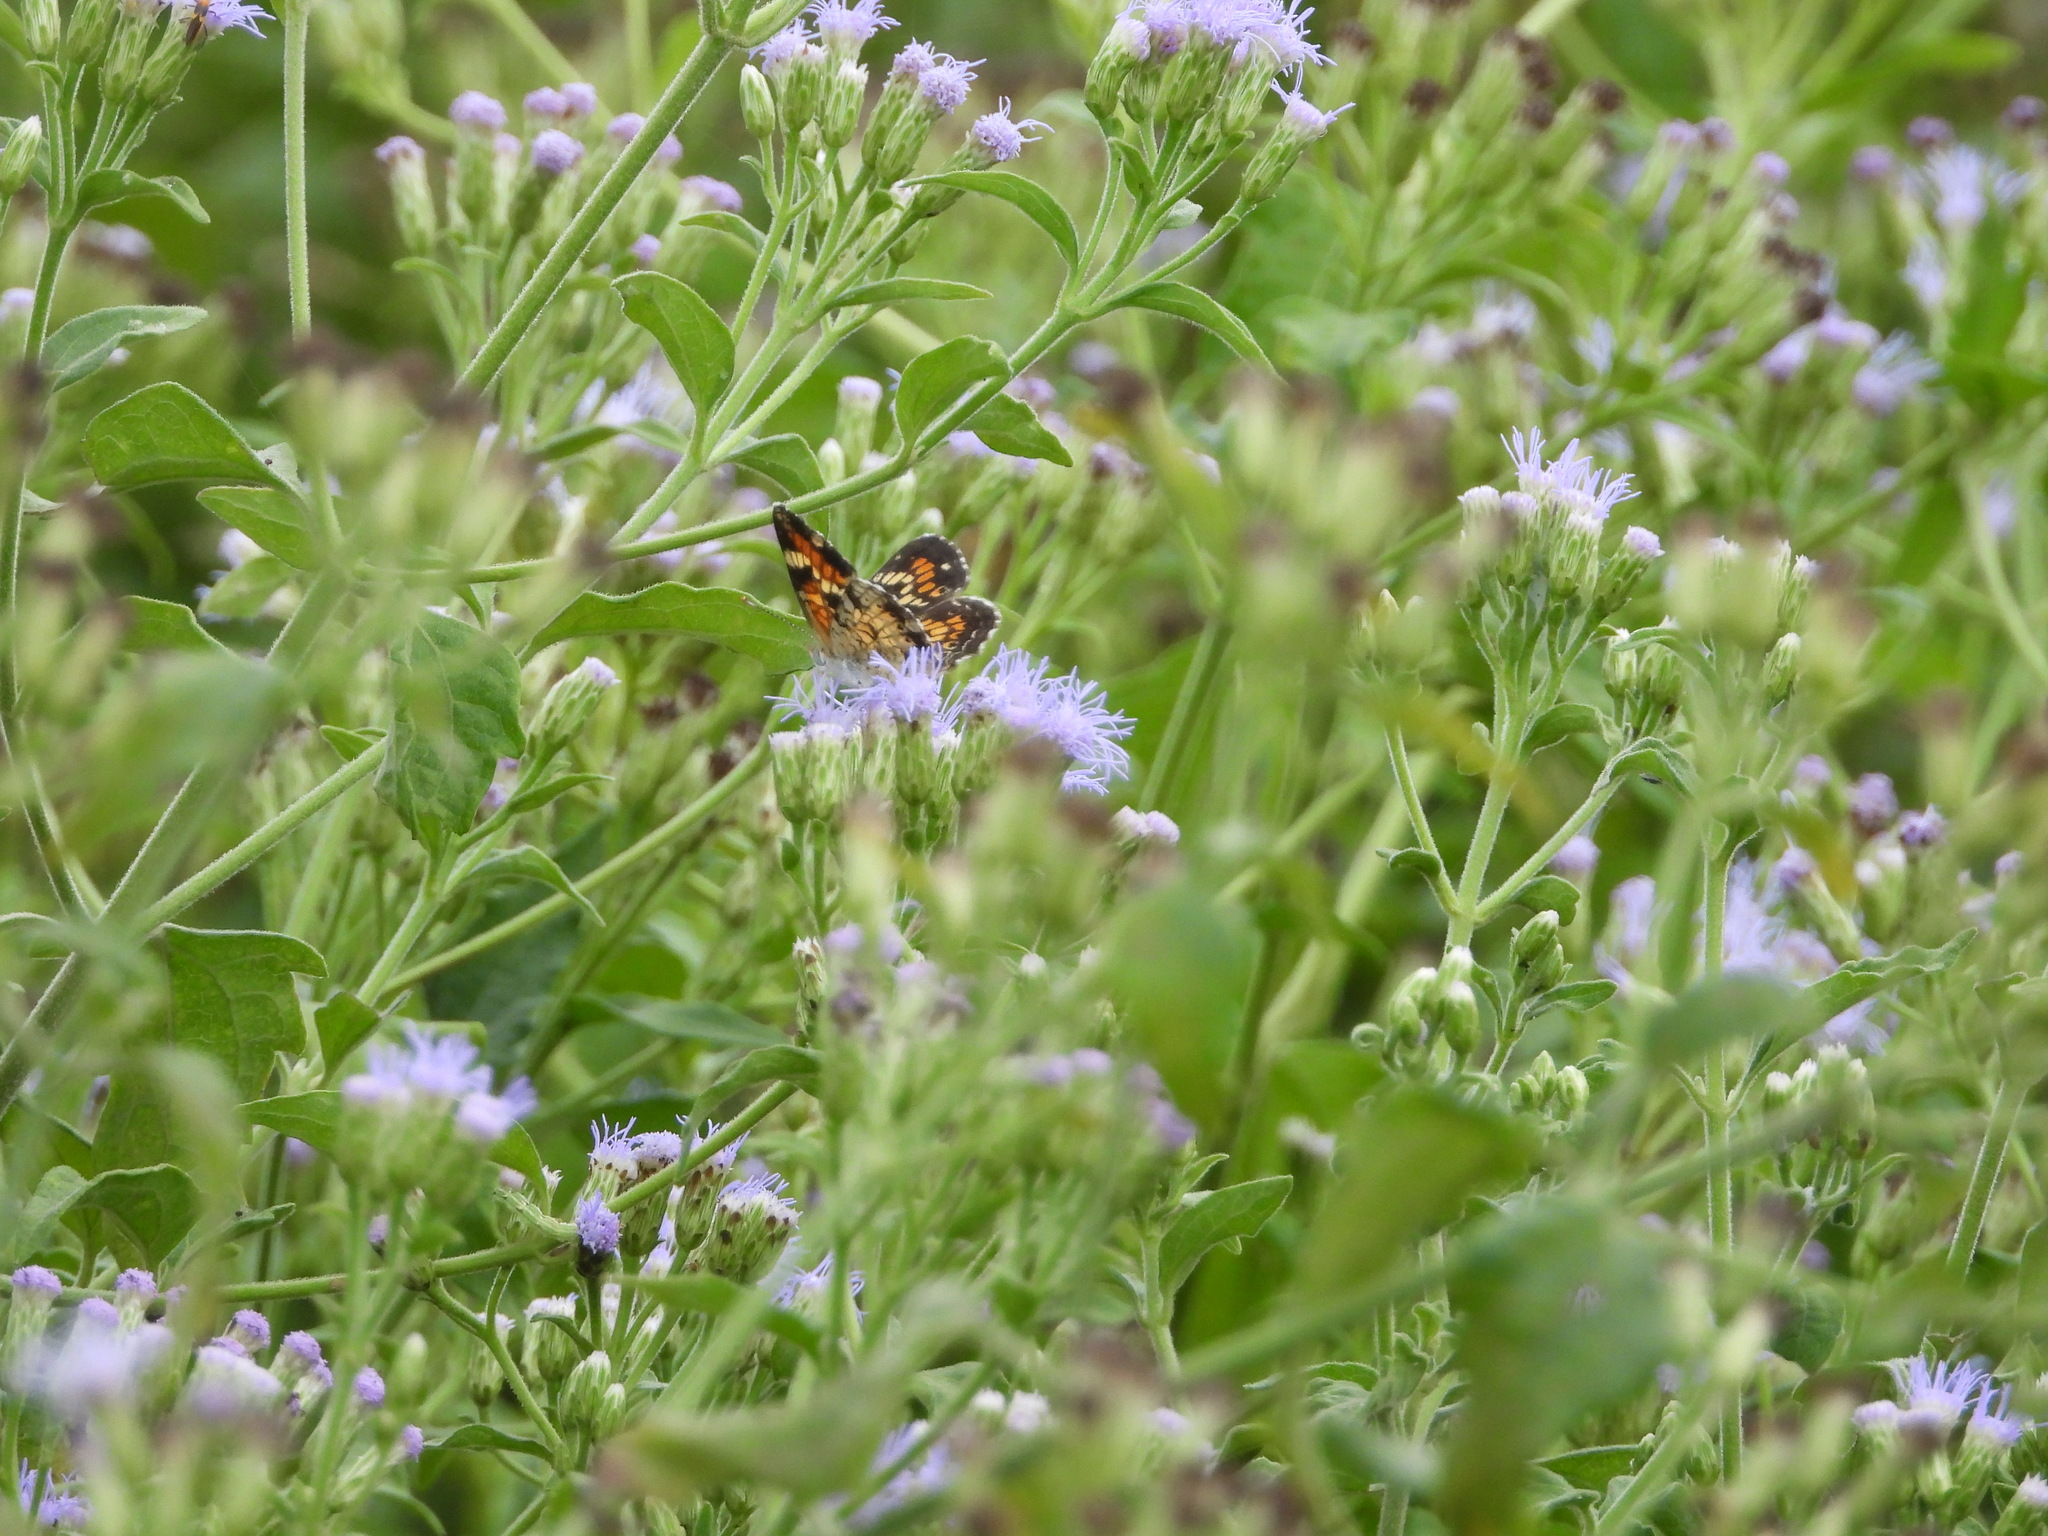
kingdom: Animalia
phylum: Arthropoda
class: Insecta
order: Lepidoptera
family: Nymphalidae
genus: Phyciodes
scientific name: Phyciodes phaon
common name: Phaon crescent
